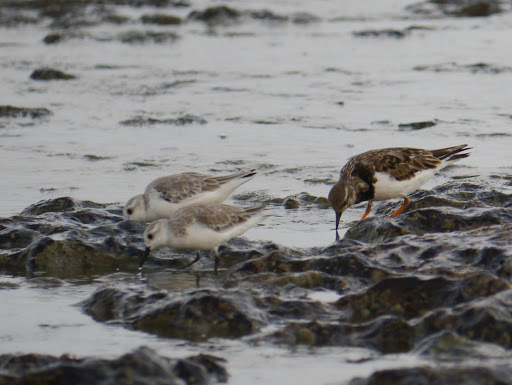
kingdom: Animalia
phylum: Chordata
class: Aves
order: Charadriiformes
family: Scolopacidae
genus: Calidris
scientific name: Calidris alba
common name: Sanderling
